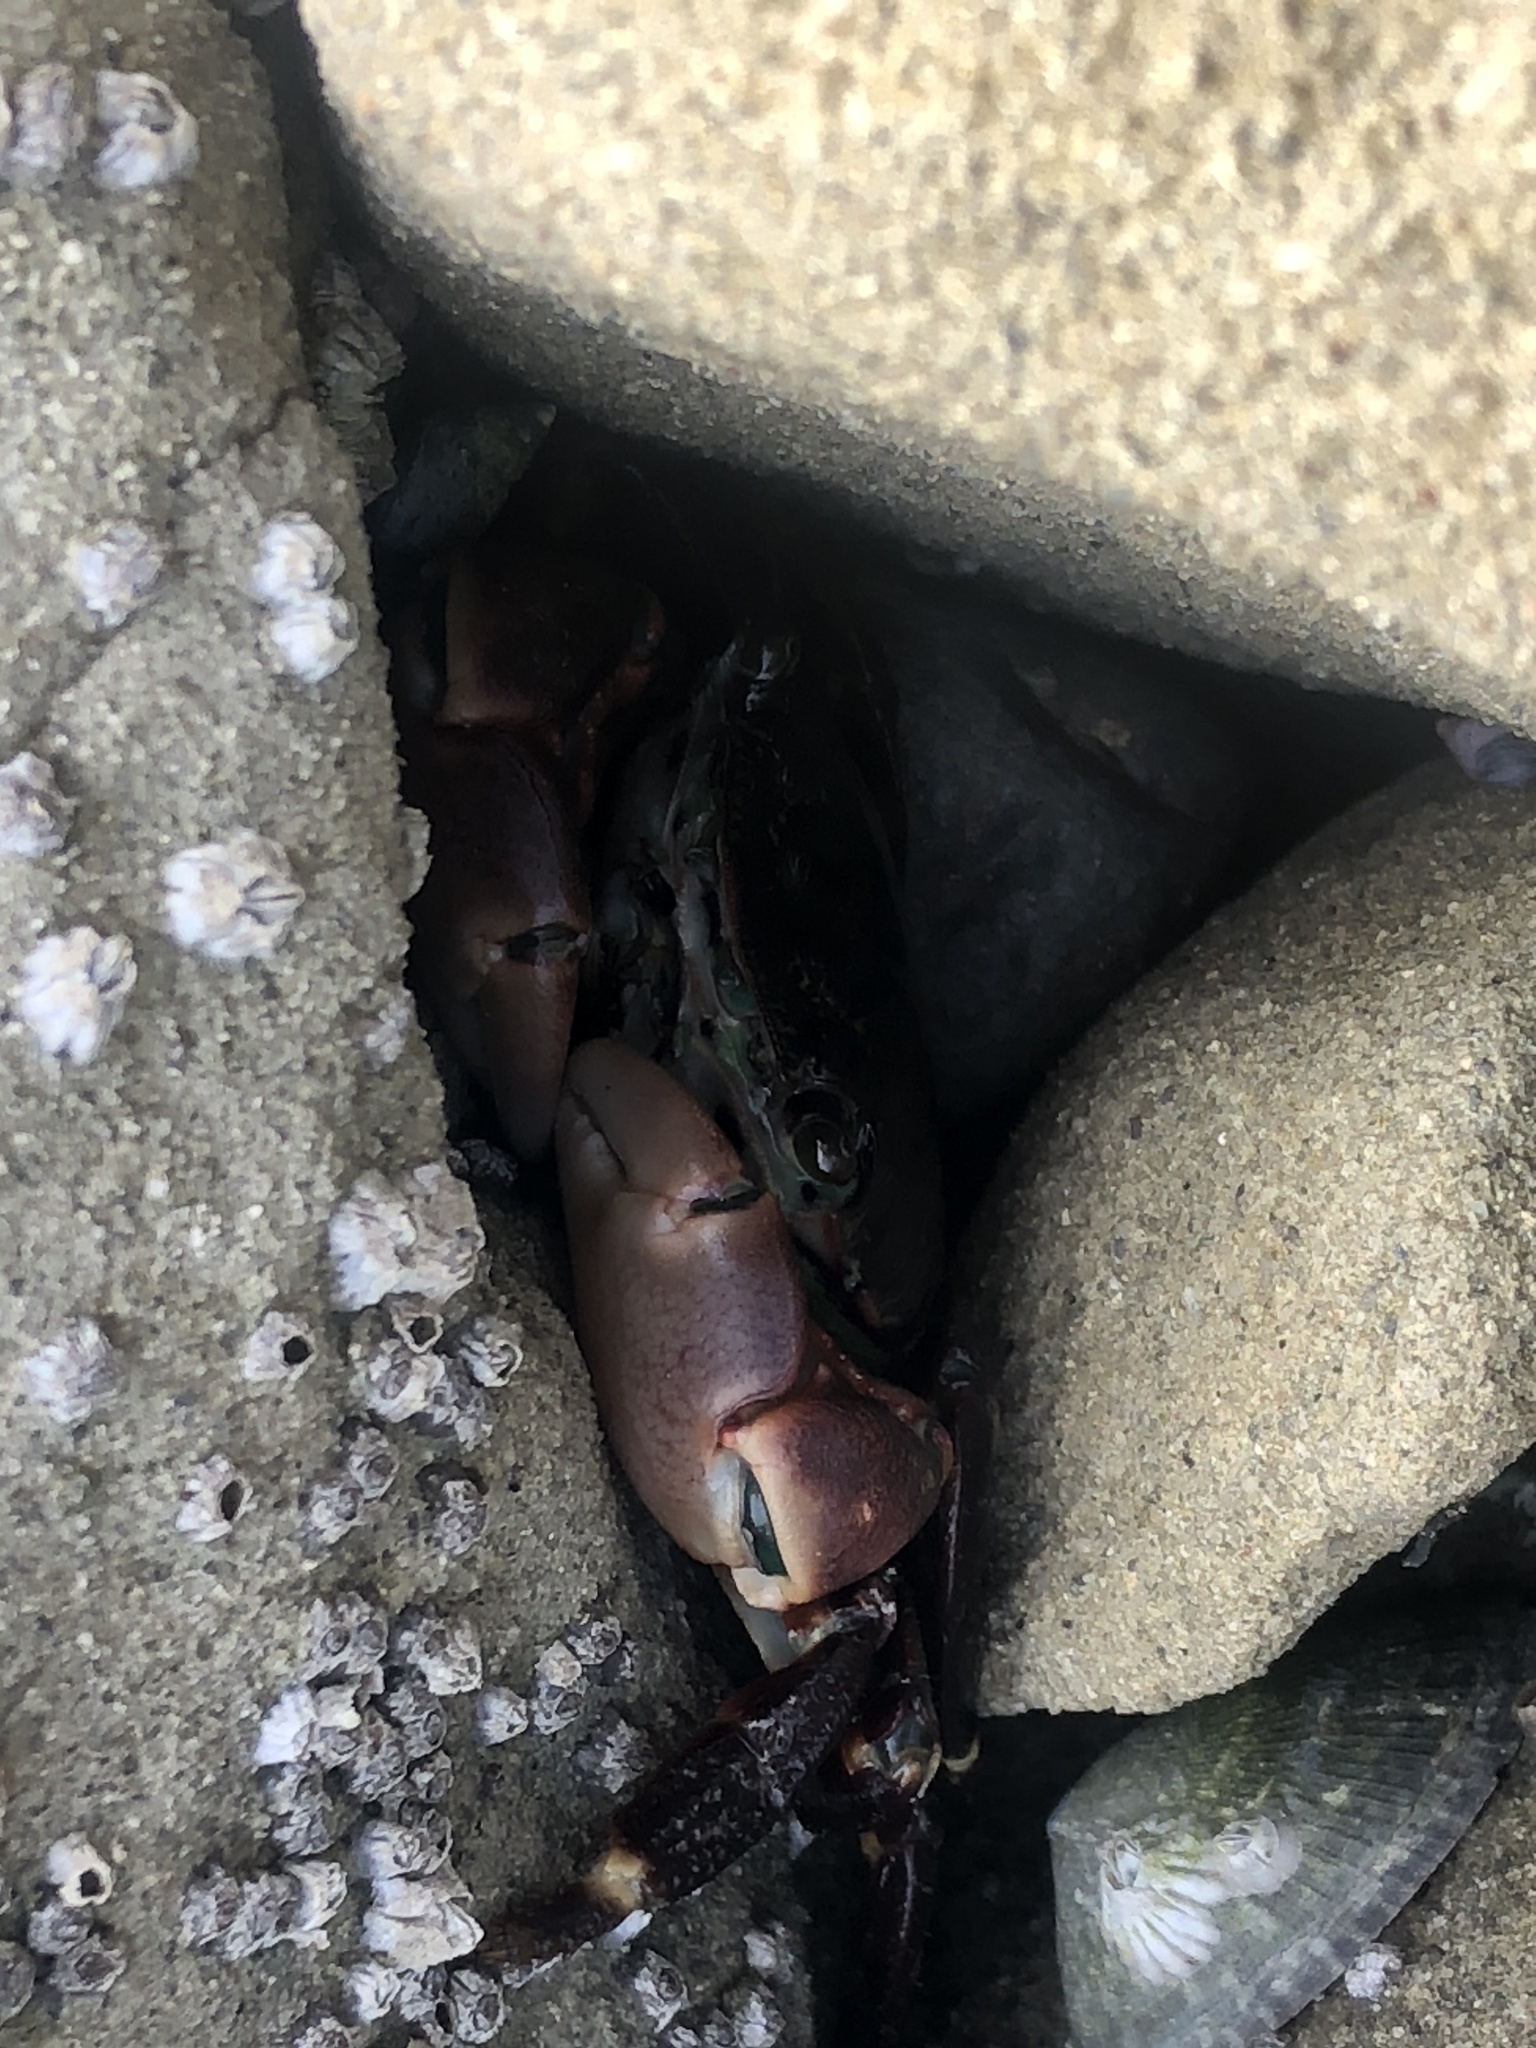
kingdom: Animalia
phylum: Arthropoda
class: Malacostraca
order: Decapoda
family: Grapsidae
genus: Pachygrapsus
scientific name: Pachygrapsus crassipes
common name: Striped shore crab
